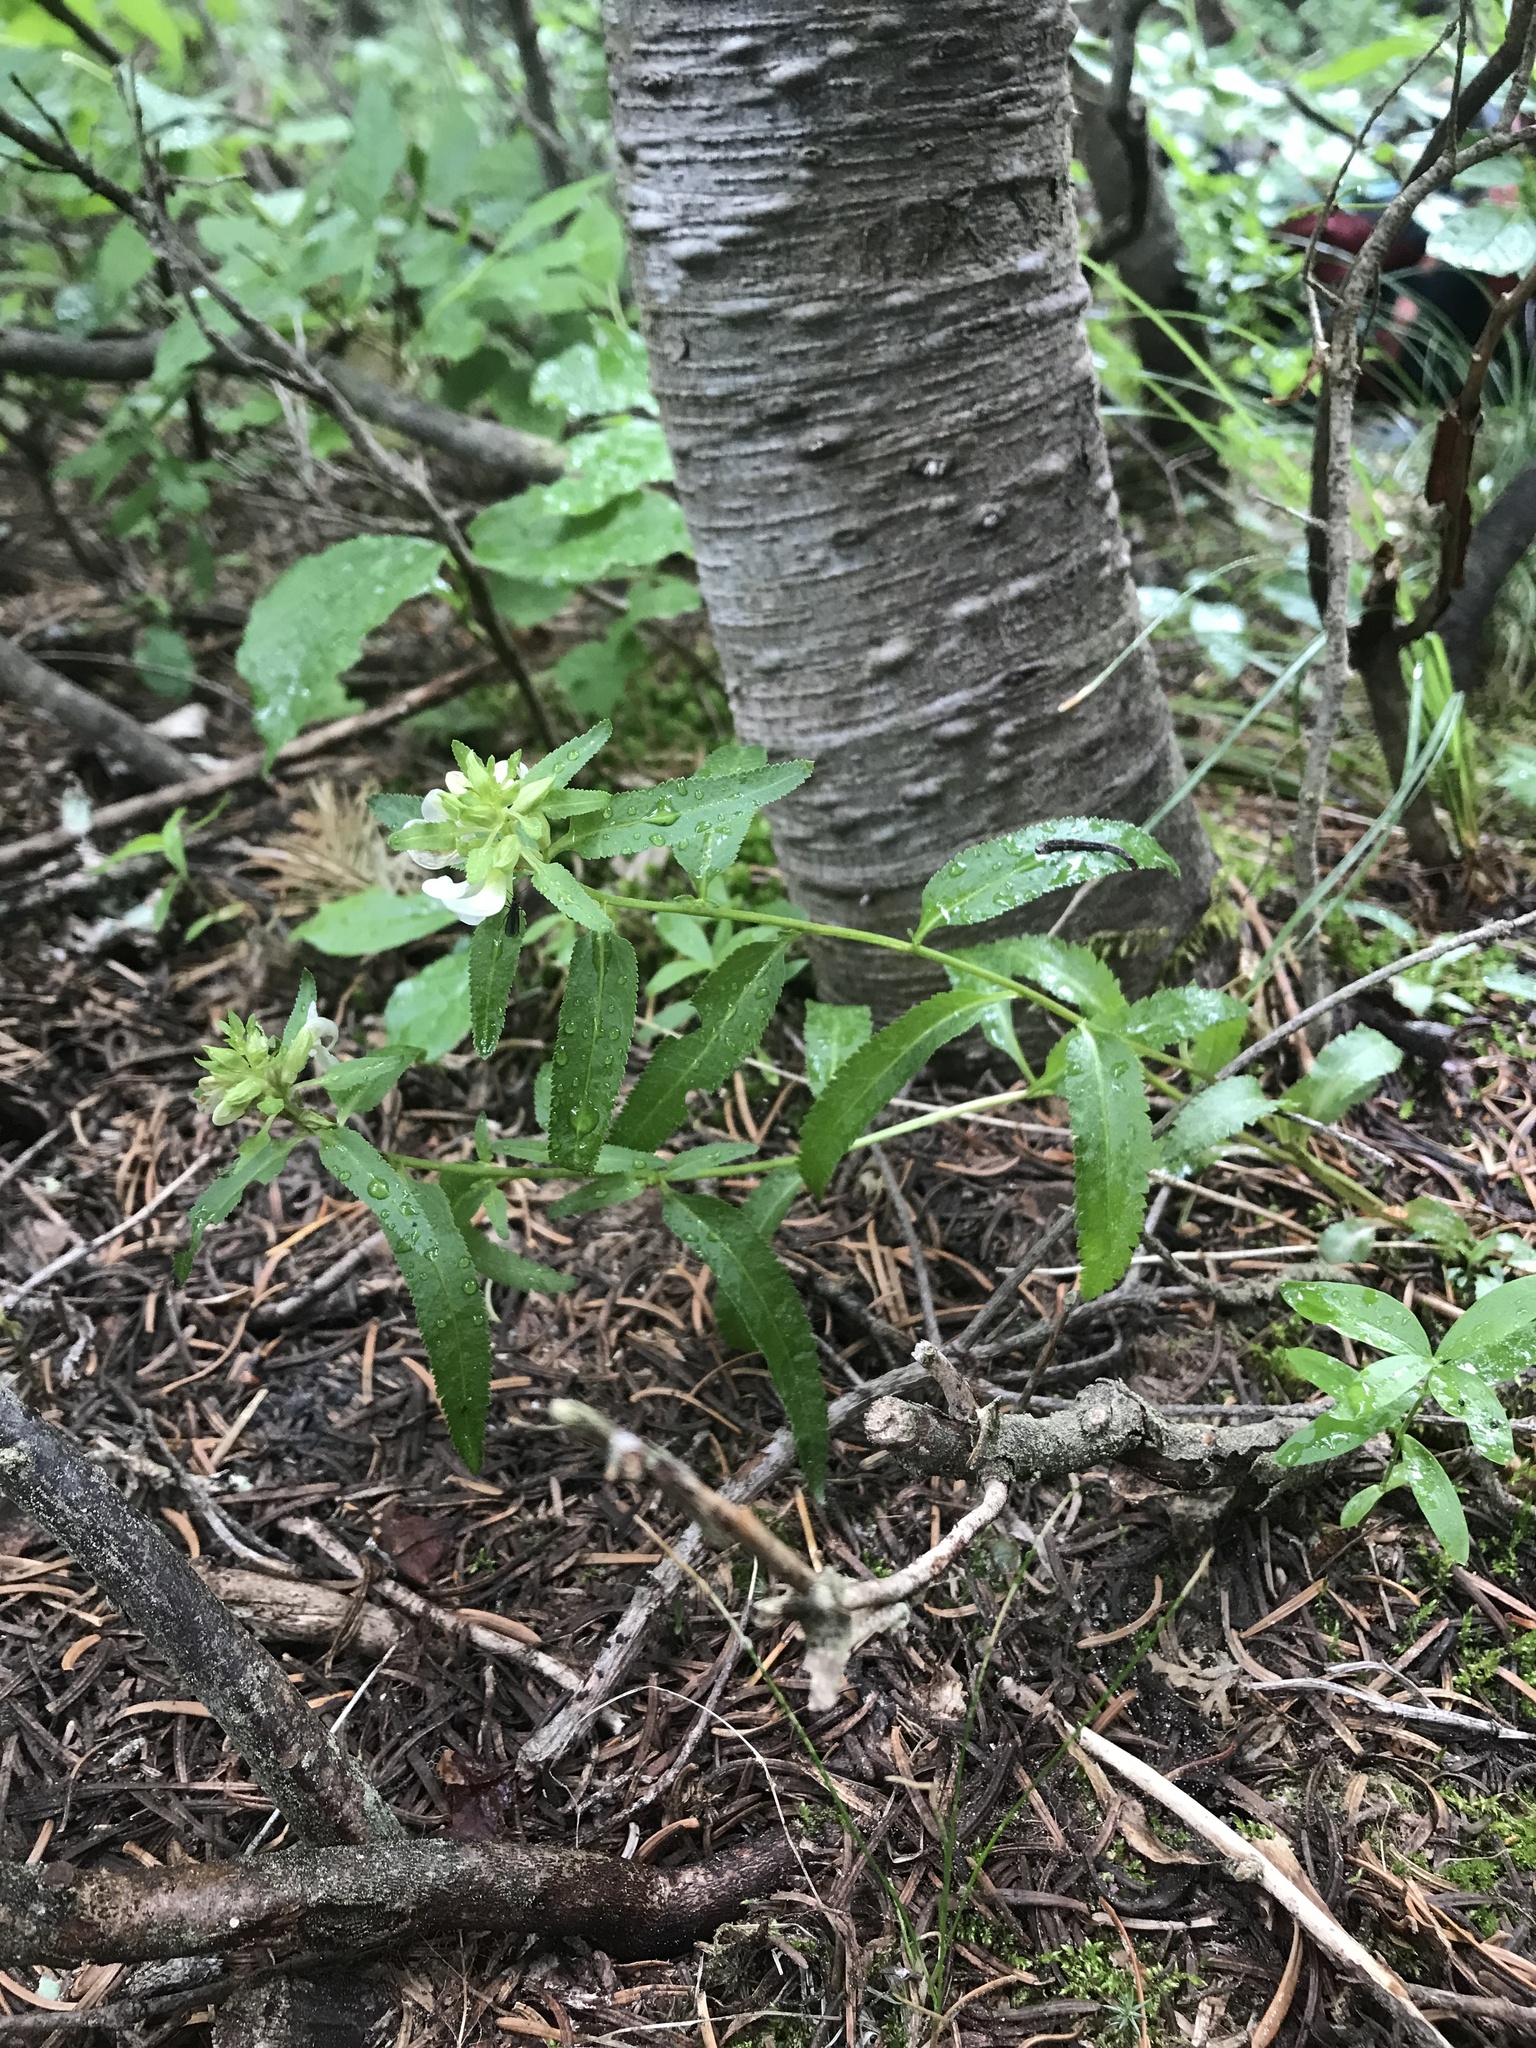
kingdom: Plantae
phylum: Tracheophyta
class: Magnoliopsida
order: Lamiales
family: Orobanchaceae
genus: Pedicularis
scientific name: Pedicularis racemosa
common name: Leafy lousewort
